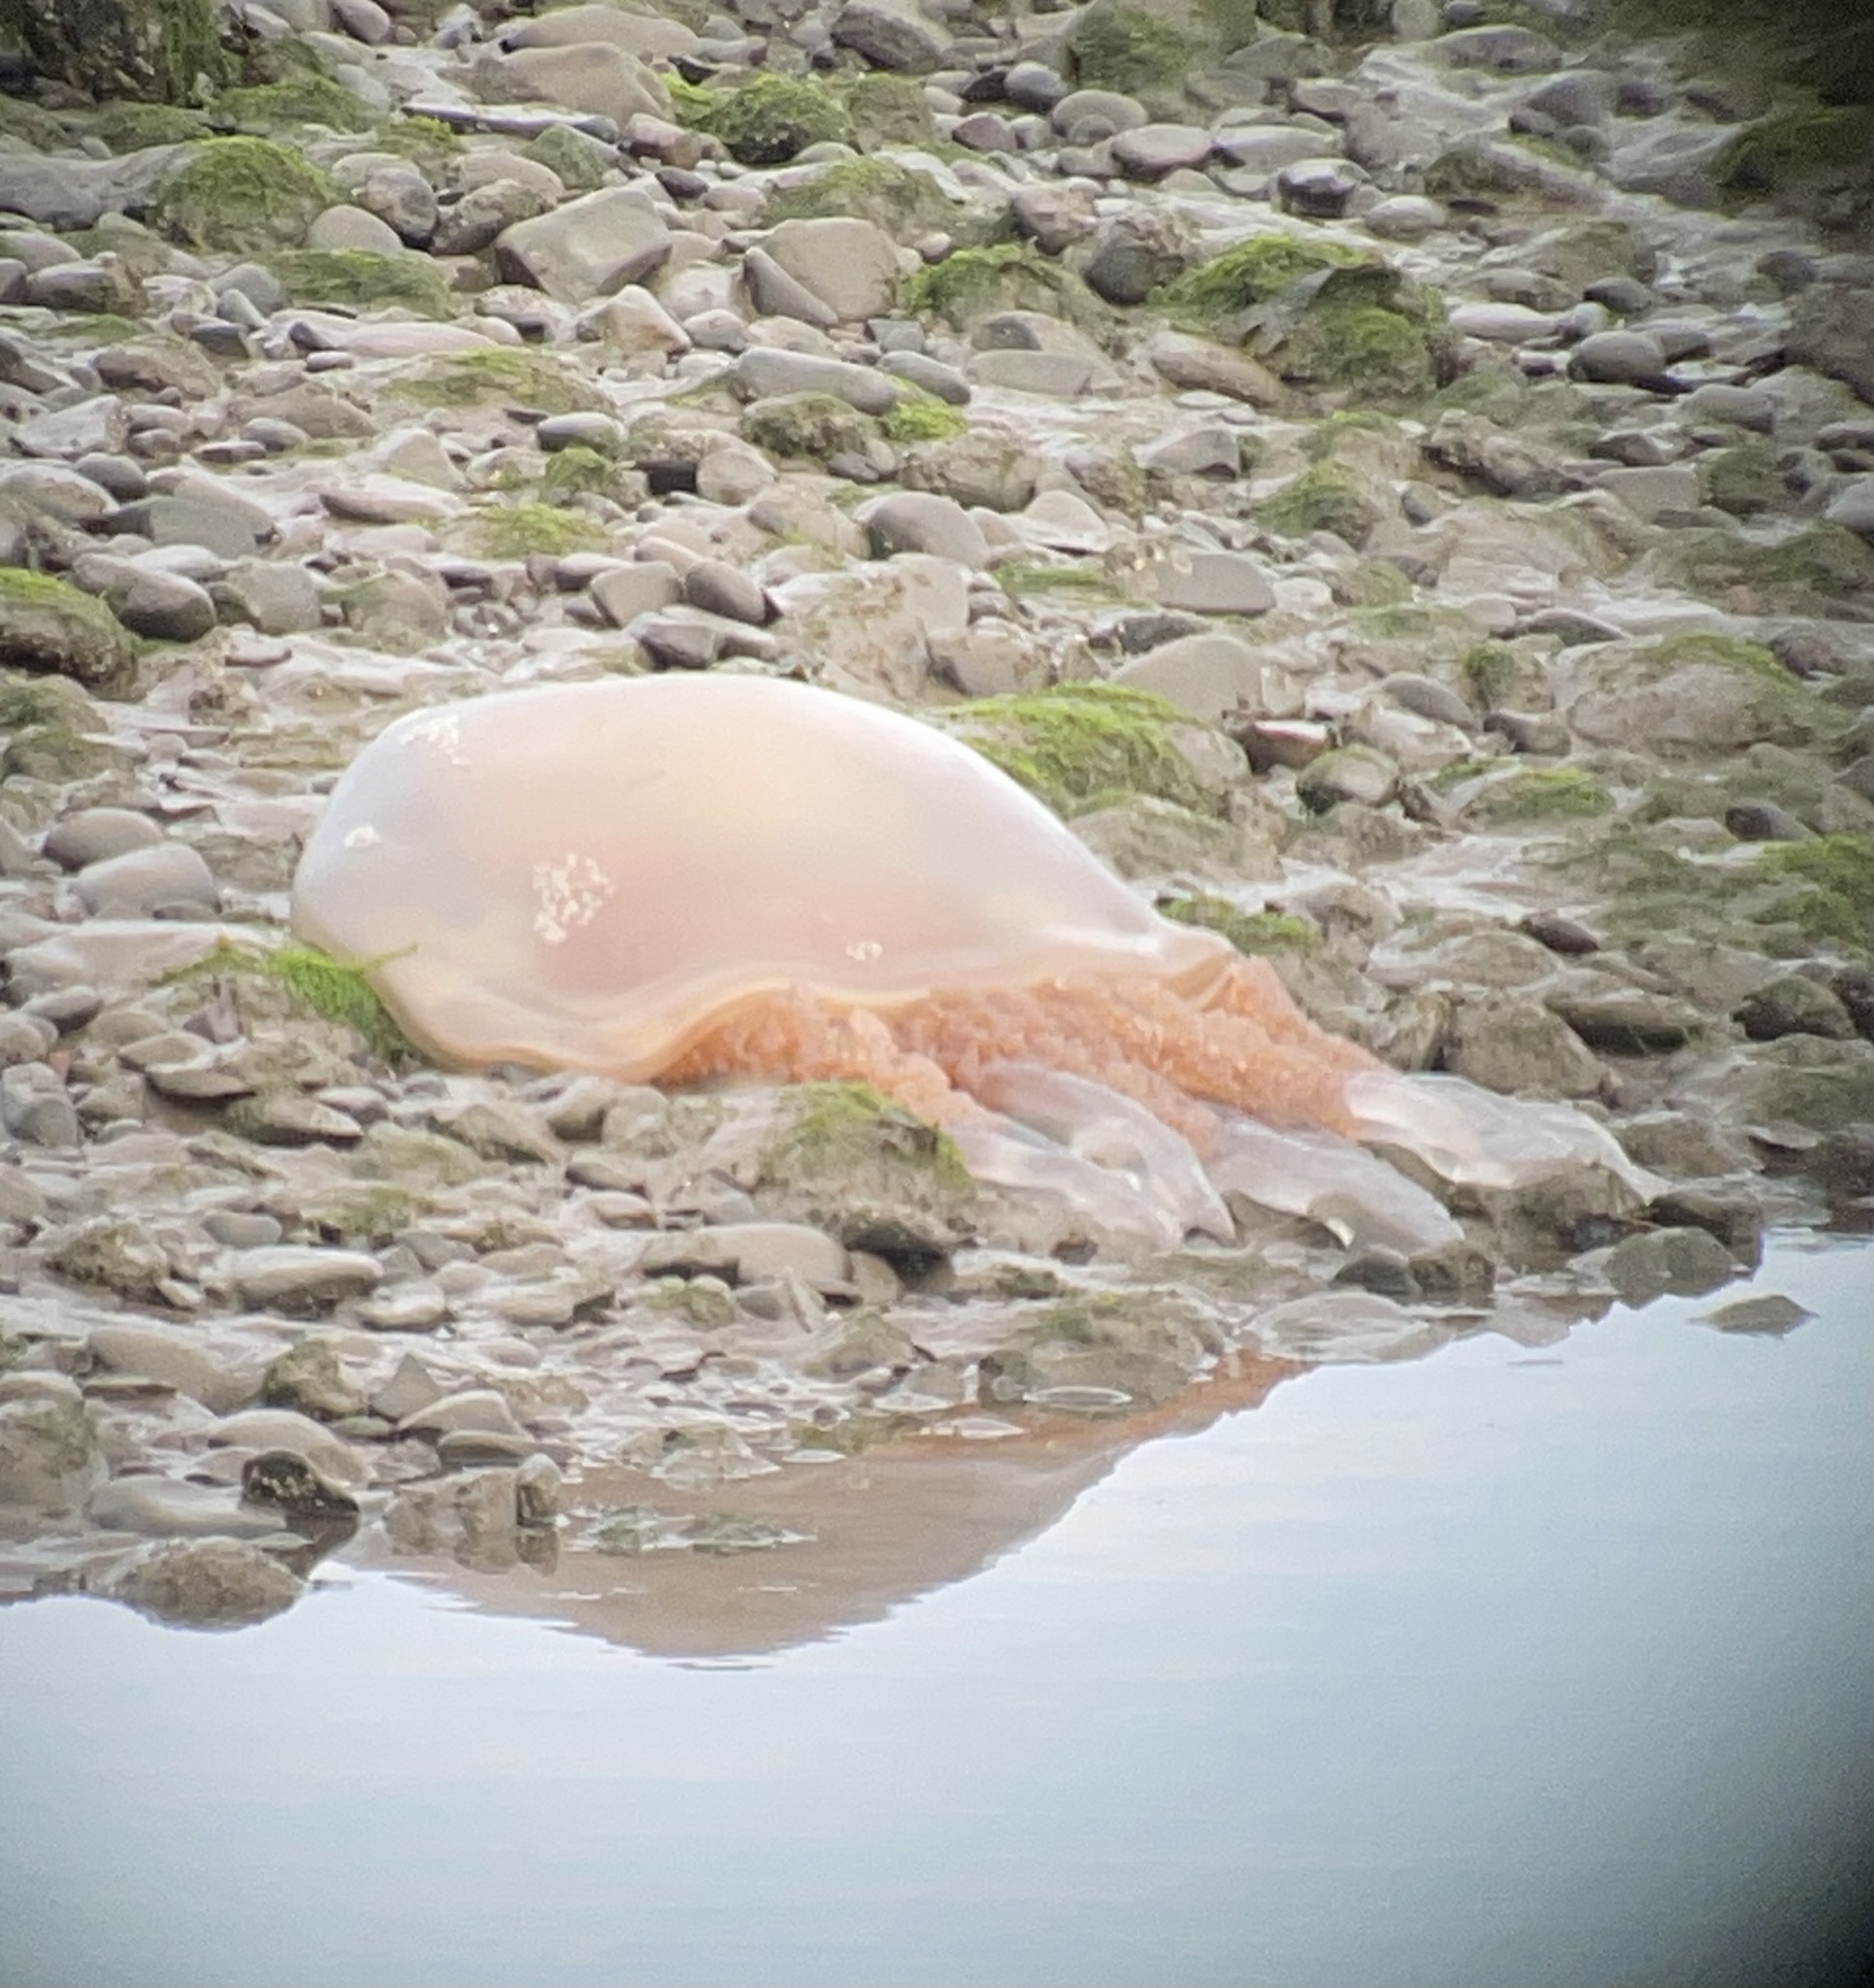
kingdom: Animalia
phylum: Cnidaria
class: Scyphozoa
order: Rhizostomeae
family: Rhizostomatidae
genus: Rhizostoma
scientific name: Rhizostoma octopus
